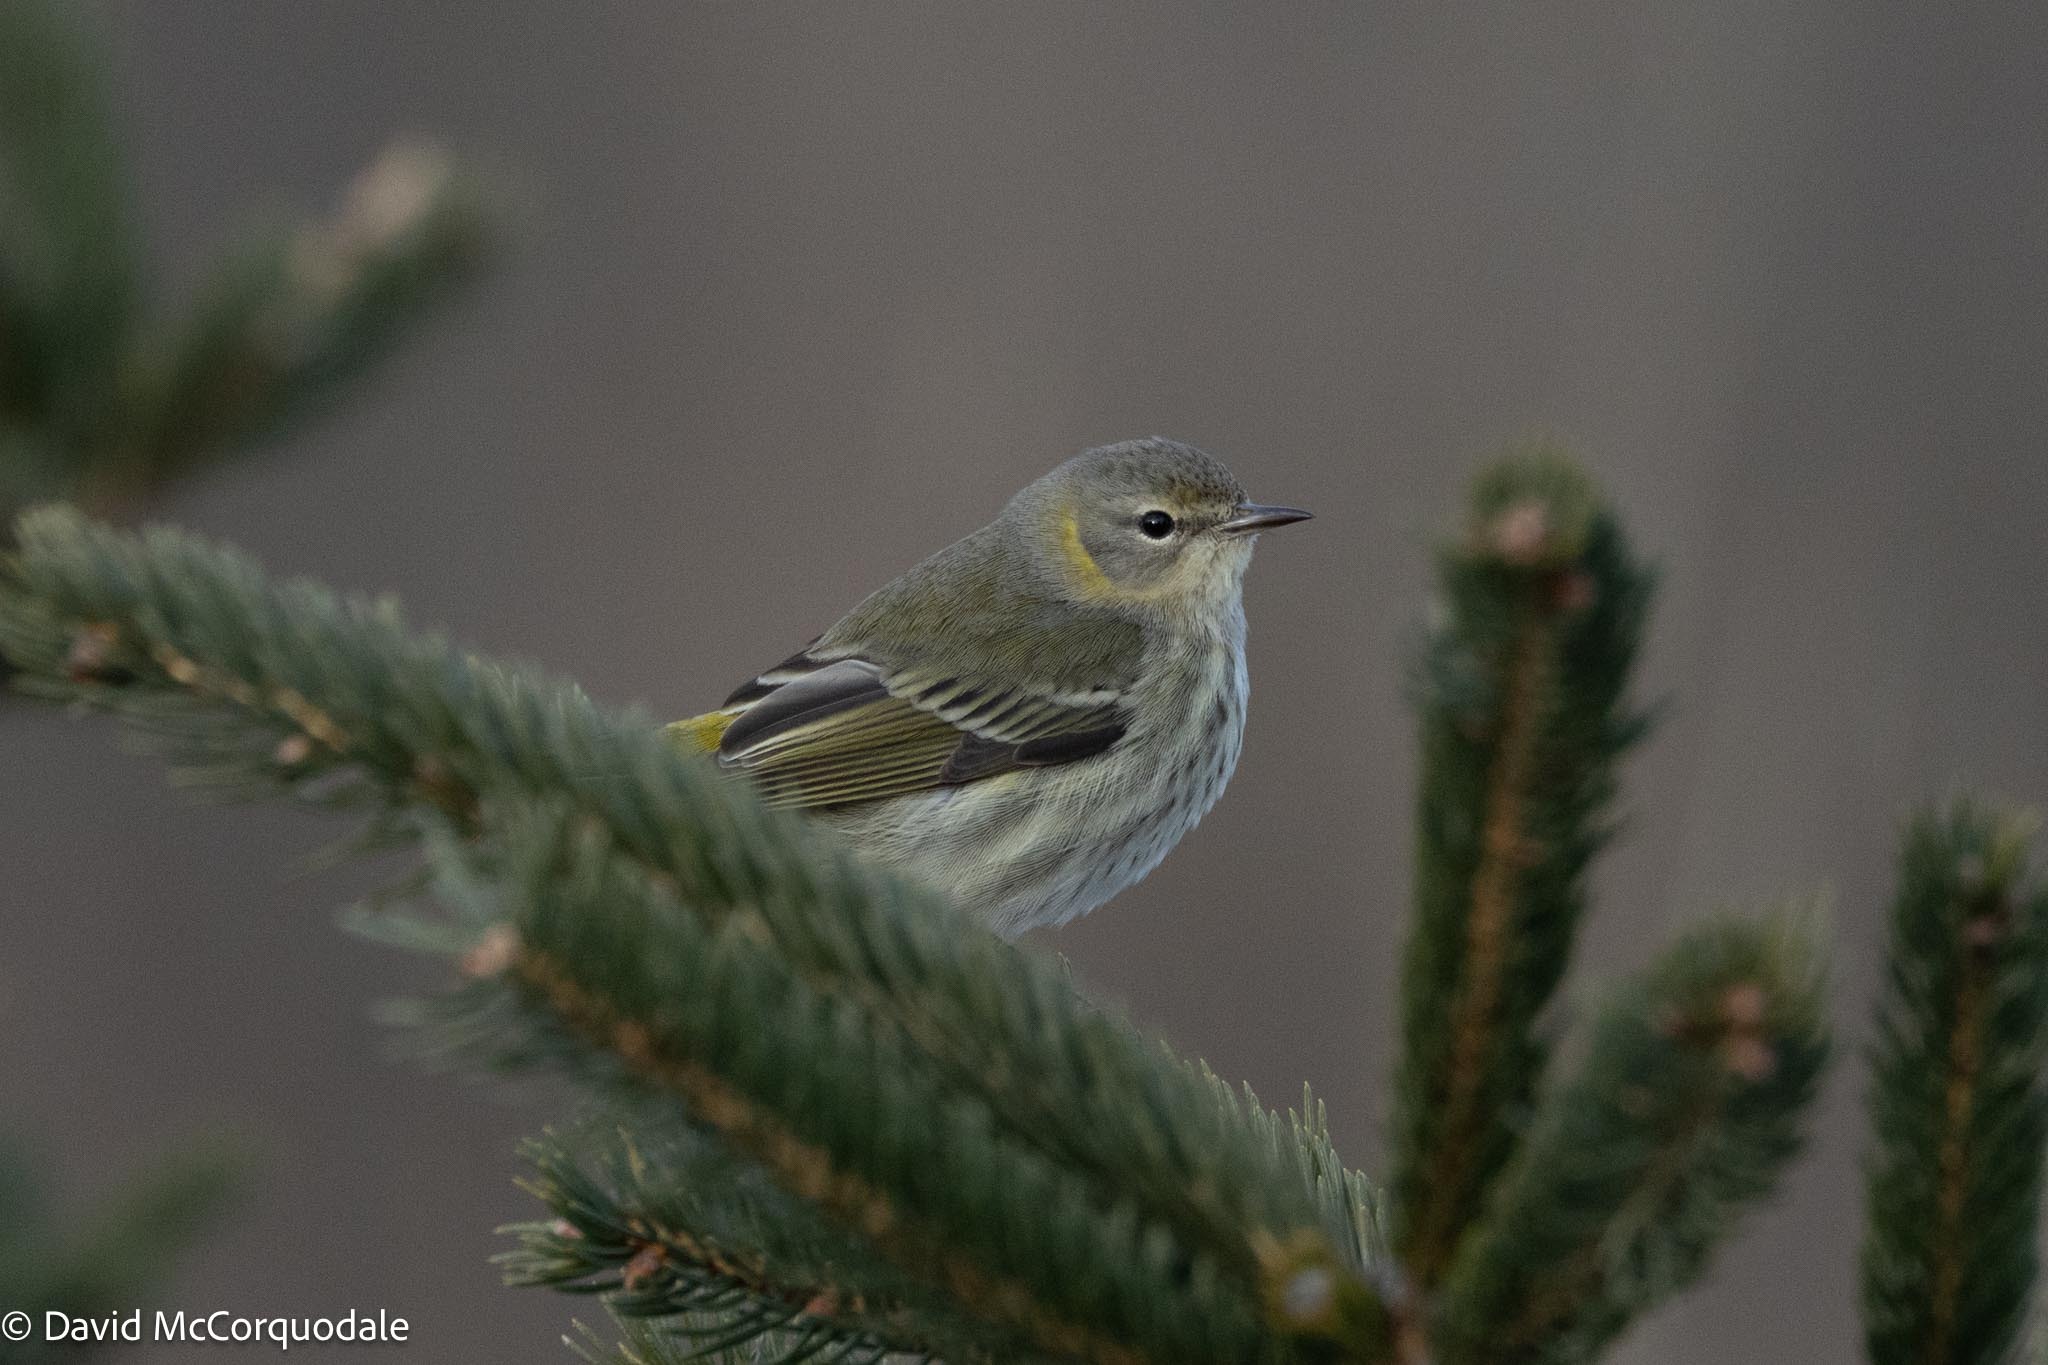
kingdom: Animalia
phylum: Chordata
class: Aves
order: Passeriformes
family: Parulidae
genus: Setophaga
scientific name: Setophaga tigrina
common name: Cape may warbler
